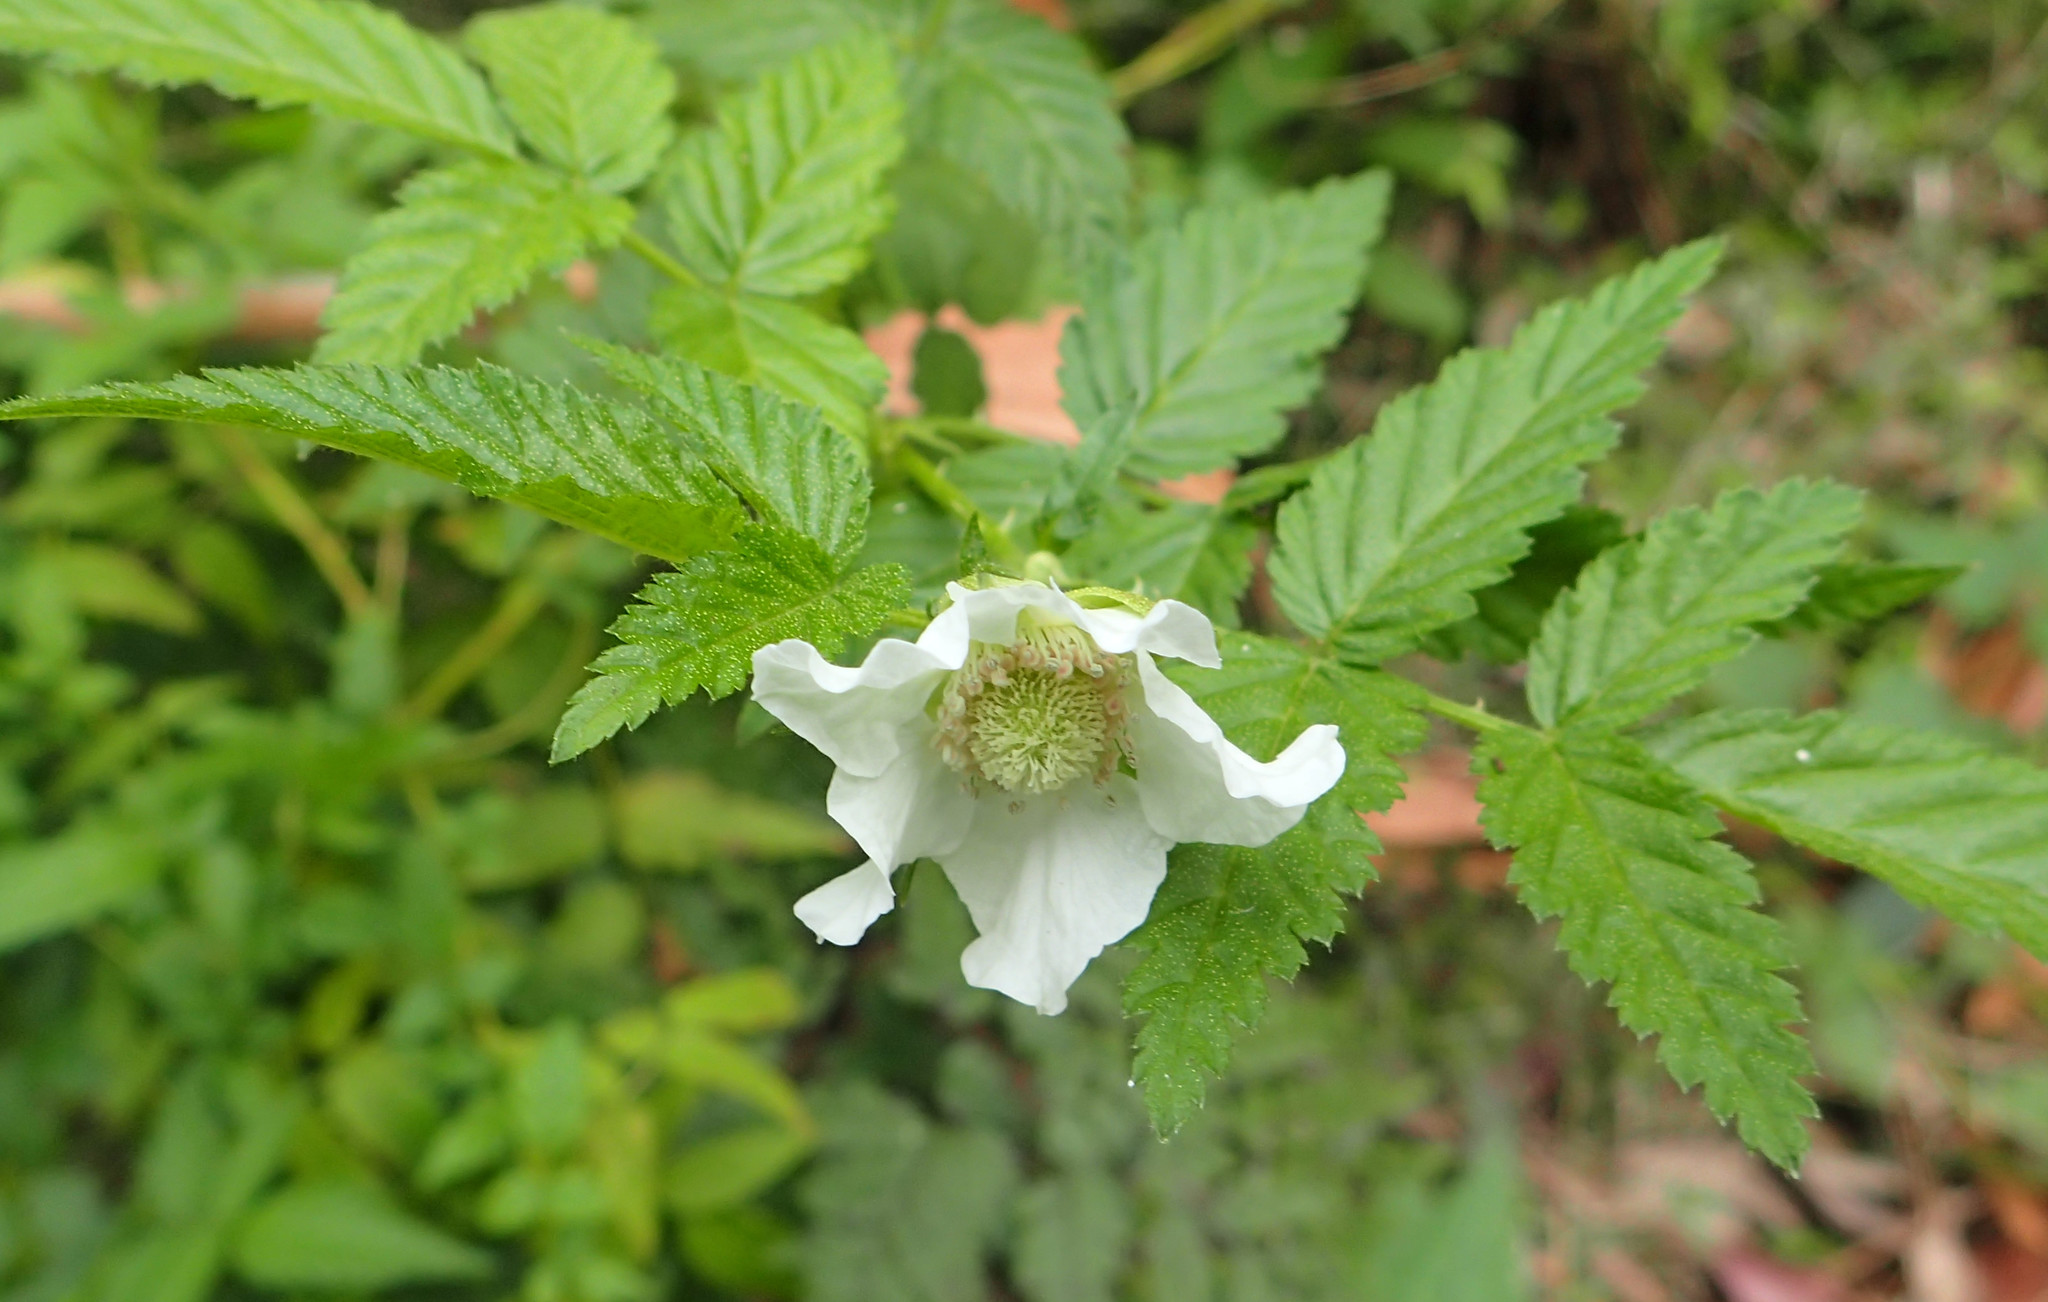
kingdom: Plantae
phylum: Tracheophyta
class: Magnoliopsida
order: Rosales
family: Rosaceae
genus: Rubus
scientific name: Rubus rosifolius
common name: Roseleaf raspberry
